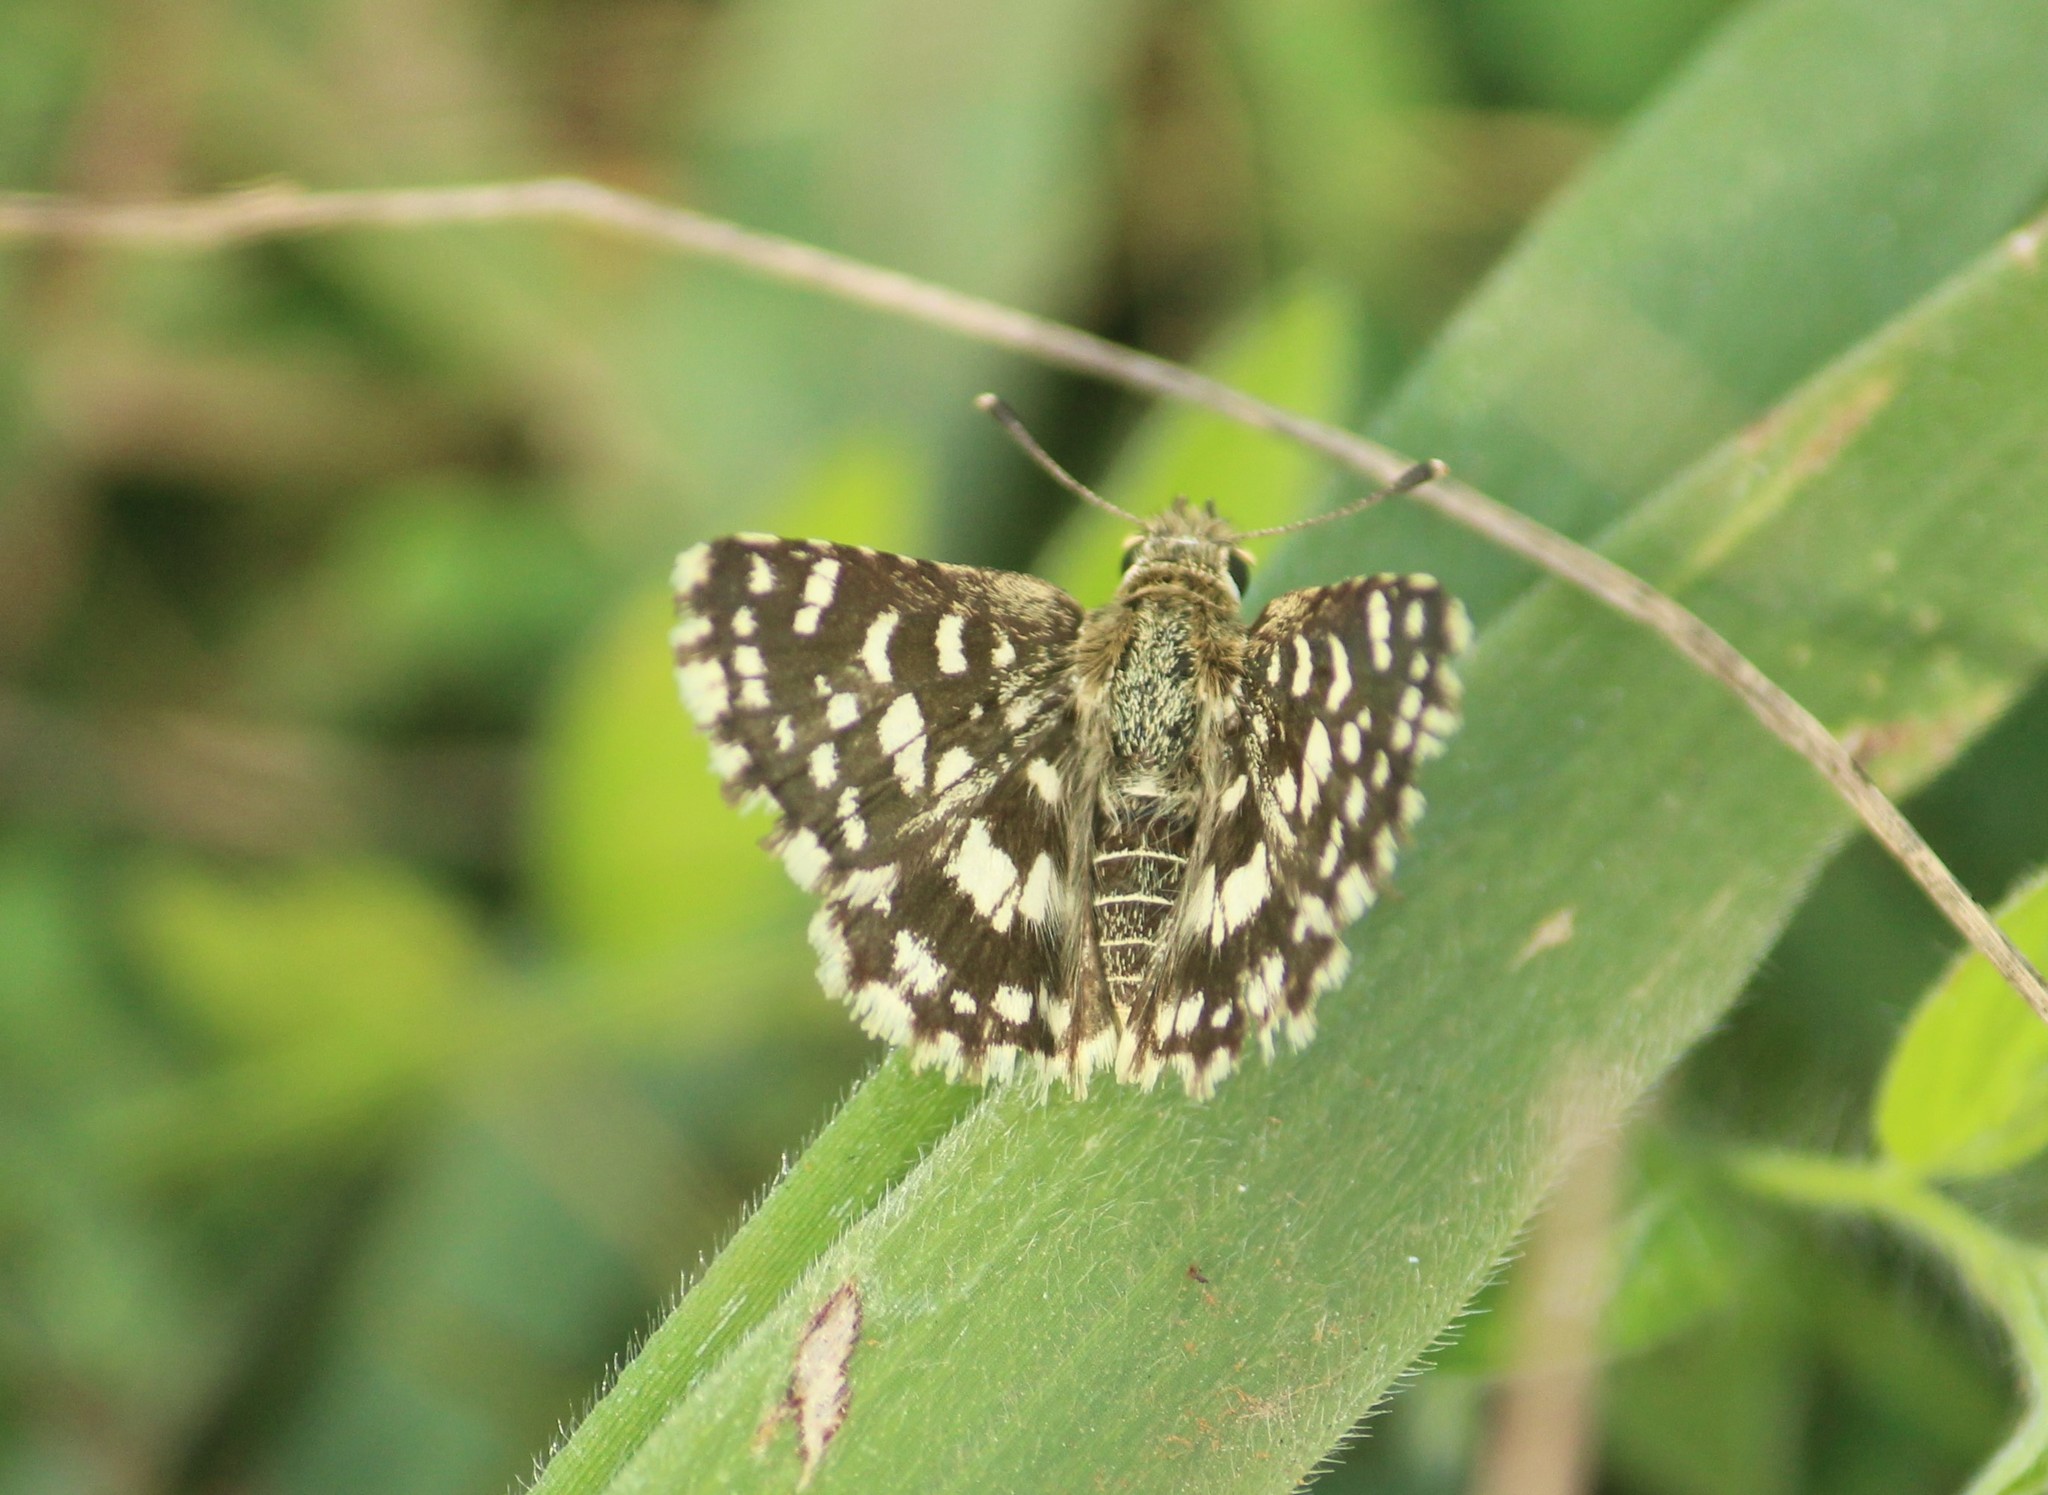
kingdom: Animalia
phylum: Arthropoda
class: Insecta
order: Lepidoptera
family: Hesperiidae
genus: Spialia
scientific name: Spialia galba
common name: Indian skipper
